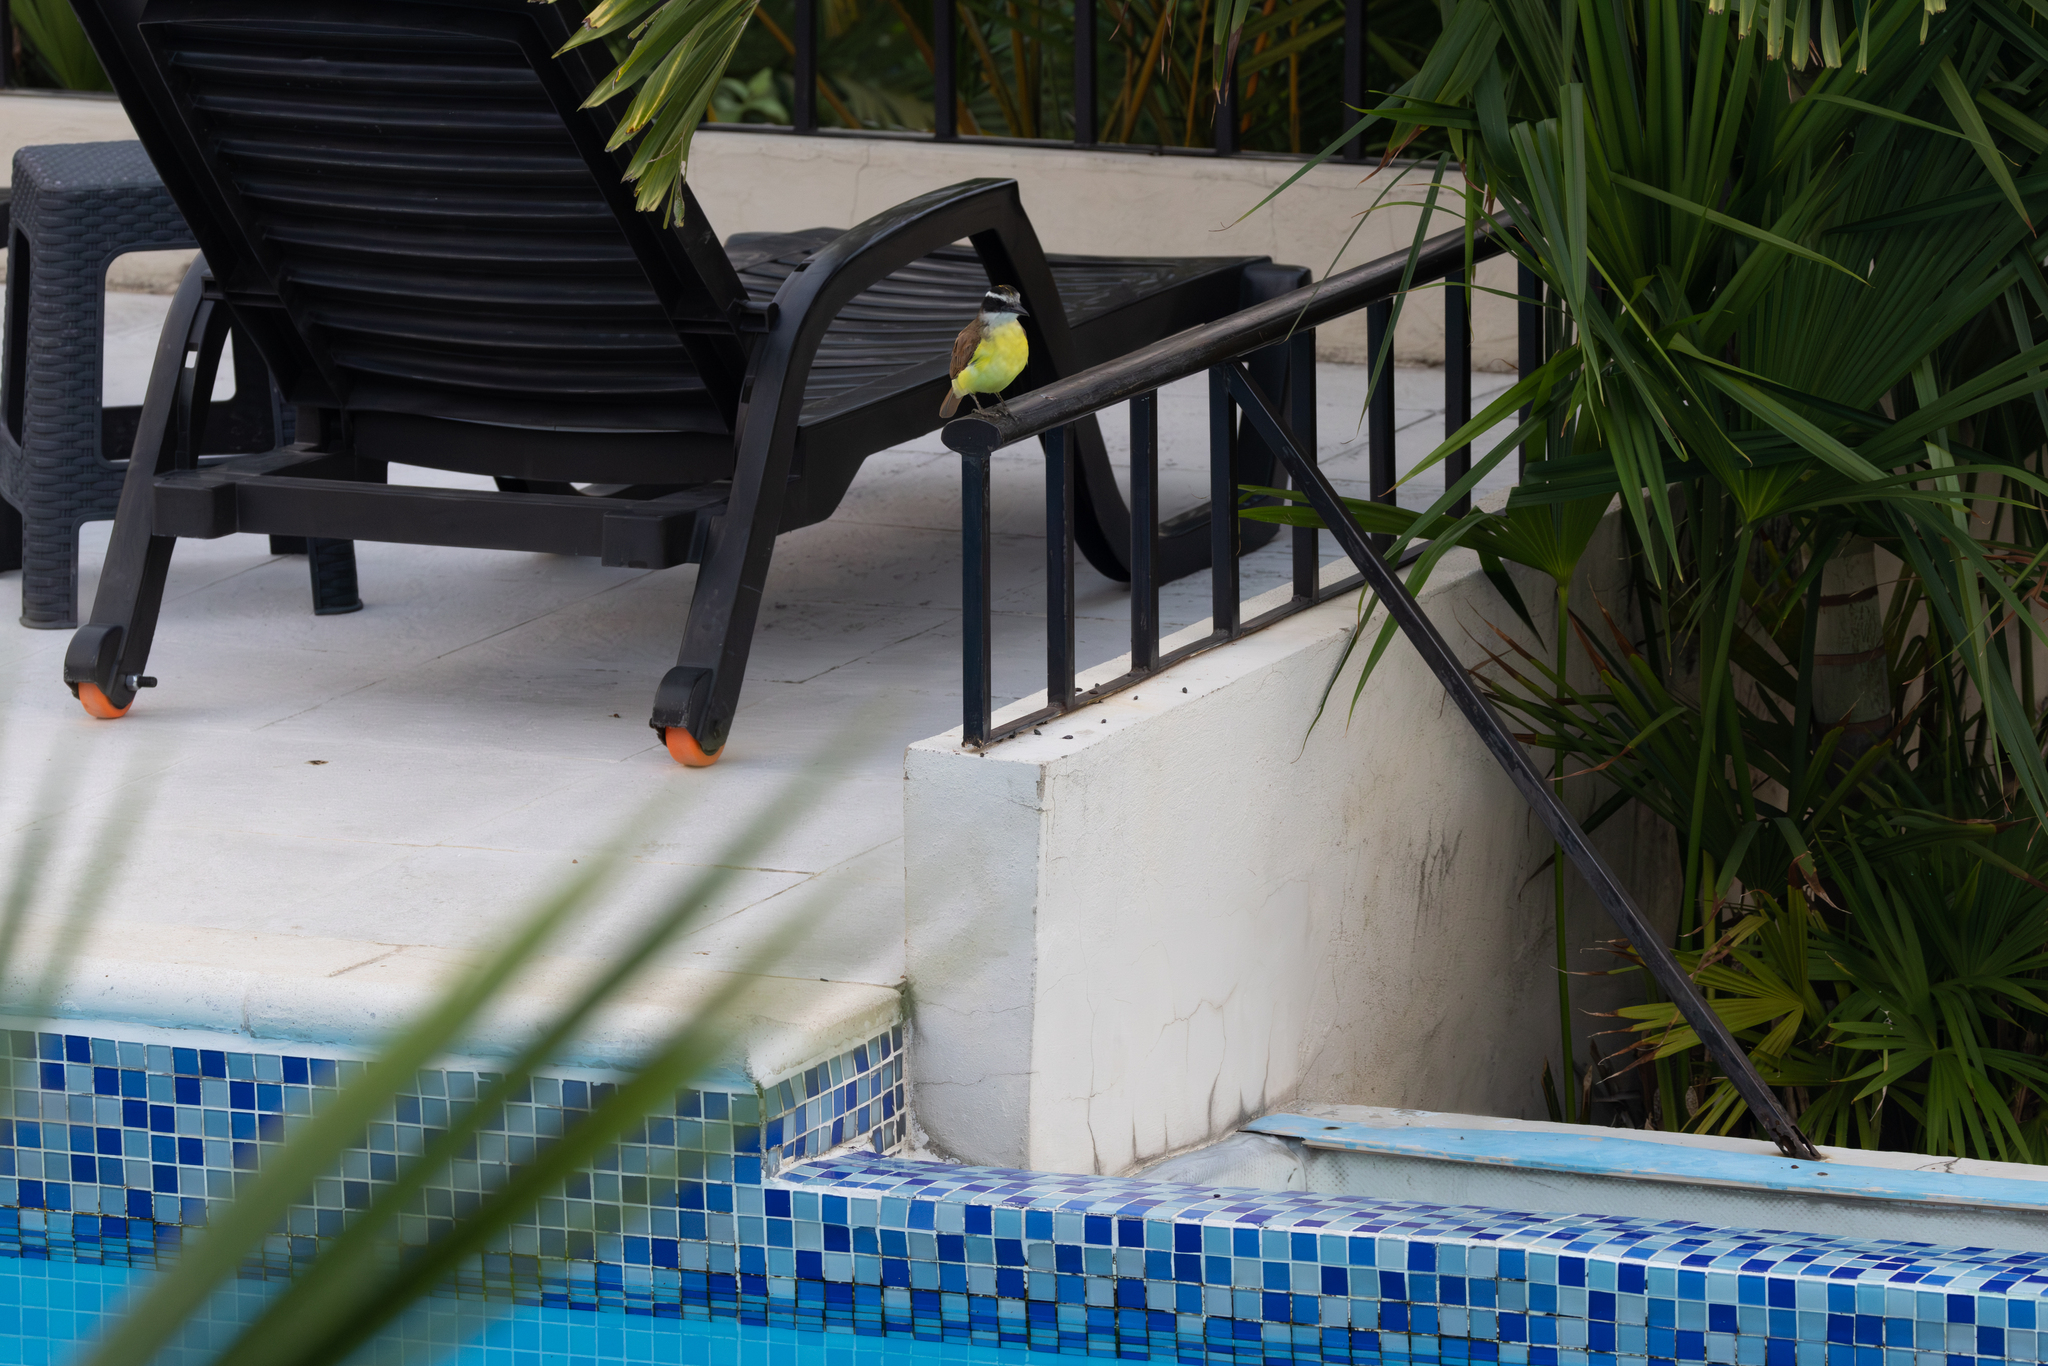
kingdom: Animalia
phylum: Chordata
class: Aves
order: Passeriformes
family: Tyrannidae
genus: Pitangus
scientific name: Pitangus sulphuratus
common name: Great kiskadee
